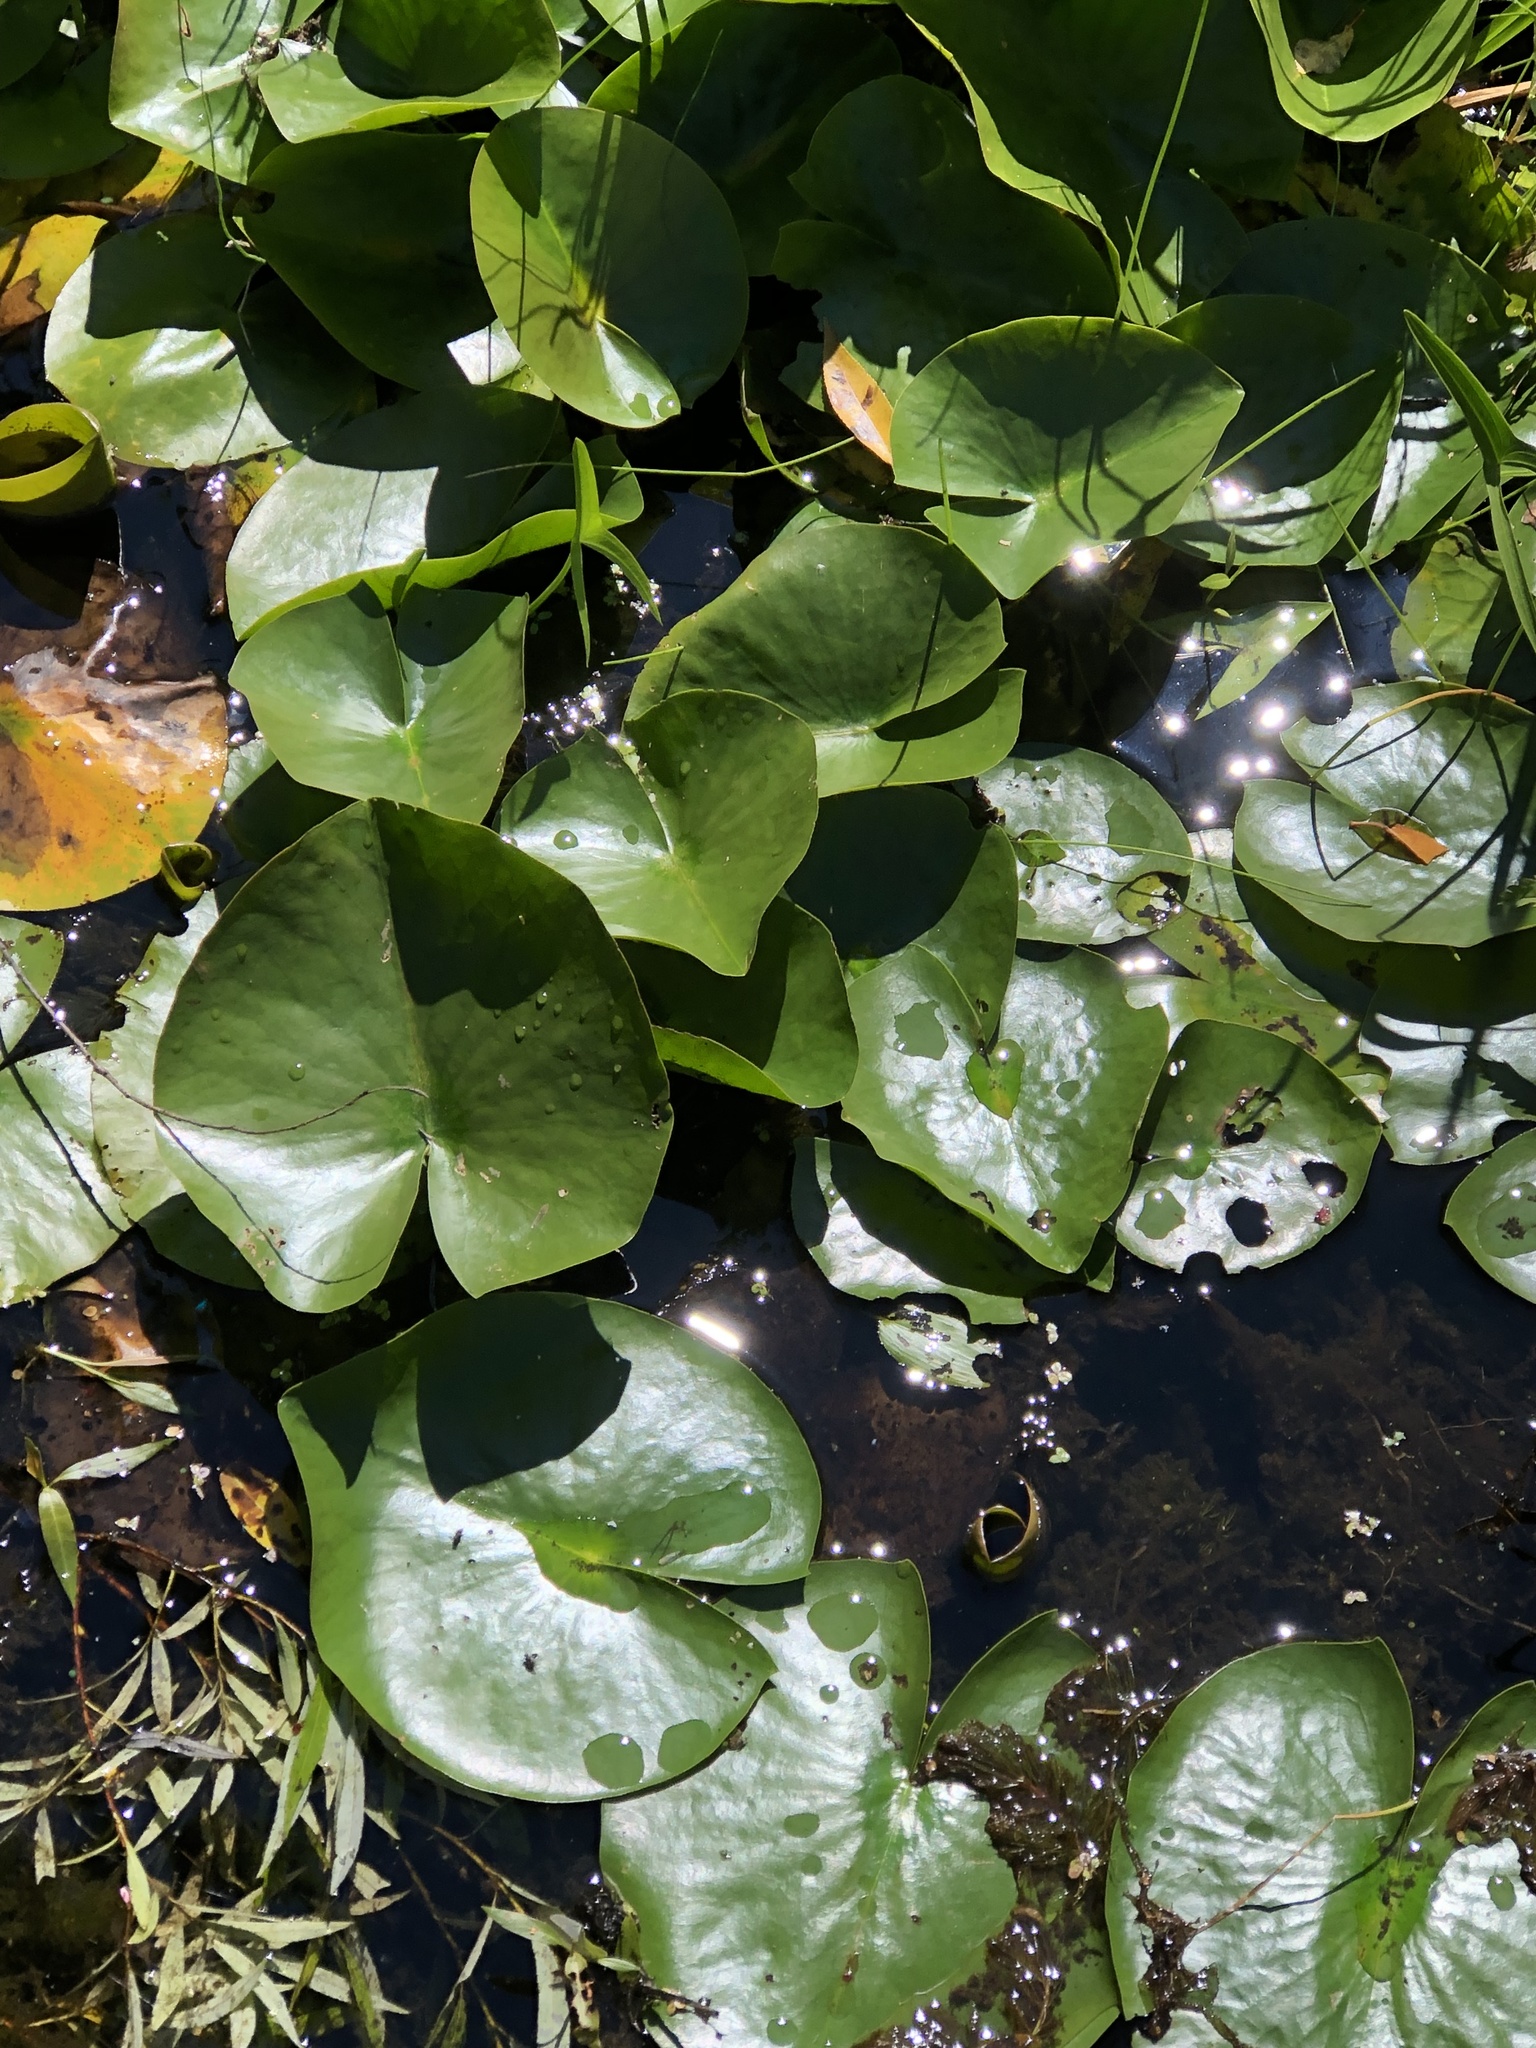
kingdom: Plantae
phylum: Tracheophyta
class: Magnoliopsida
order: Nymphaeales
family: Nymphaeaceae
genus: Nymphaea
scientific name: Nymphaea odorata
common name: Fragrant water-lily
